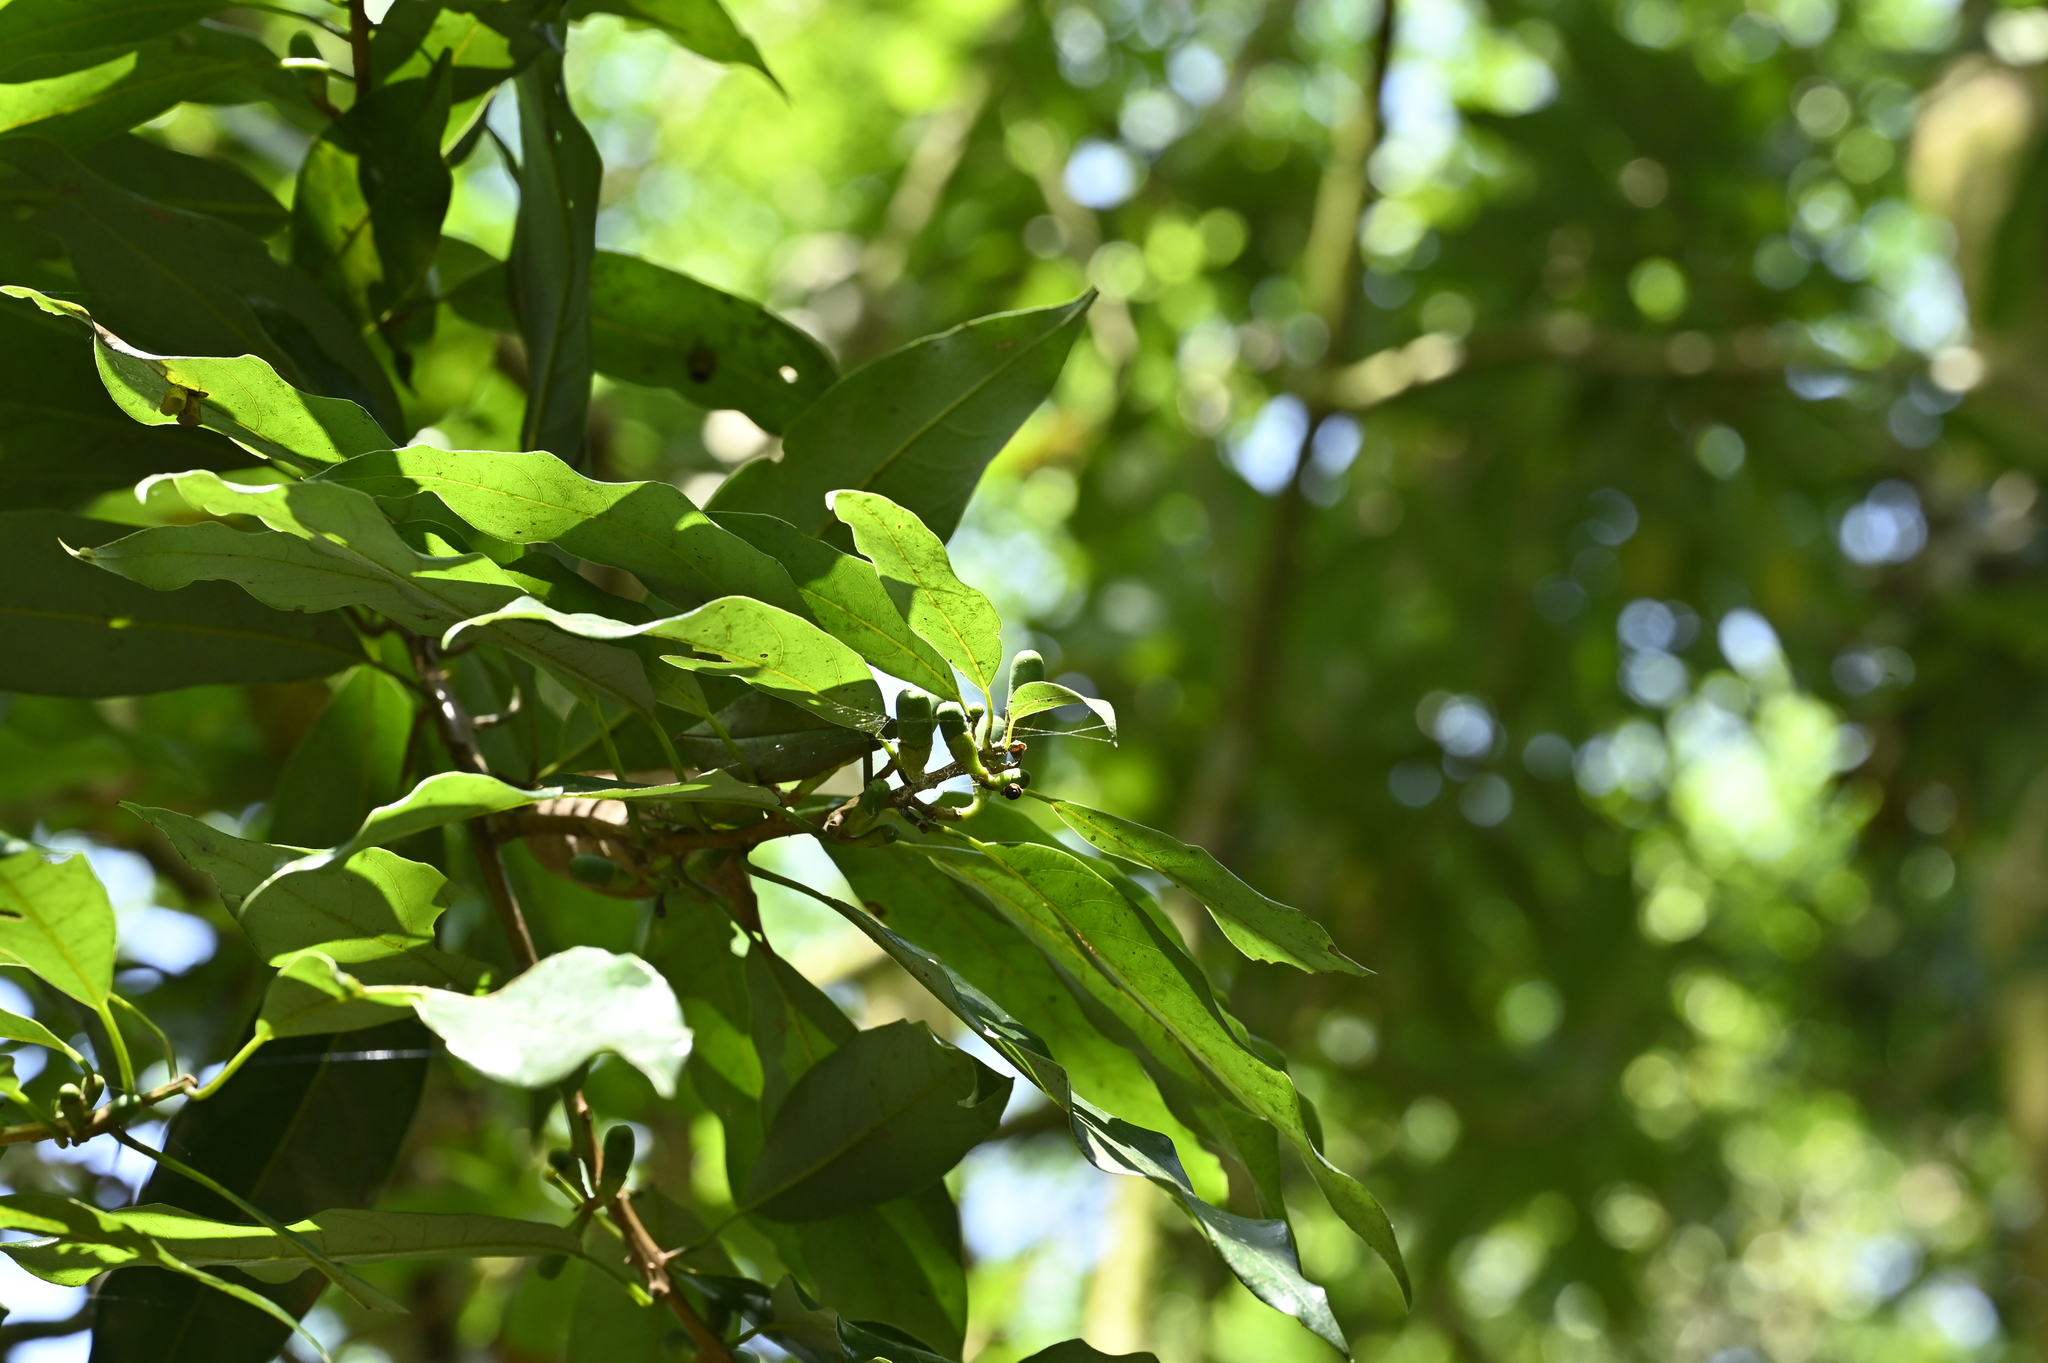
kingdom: Plantae
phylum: Tracheophyta
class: Magnoliopsida
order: Laurales
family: Lauraceae
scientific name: Lauraceae
